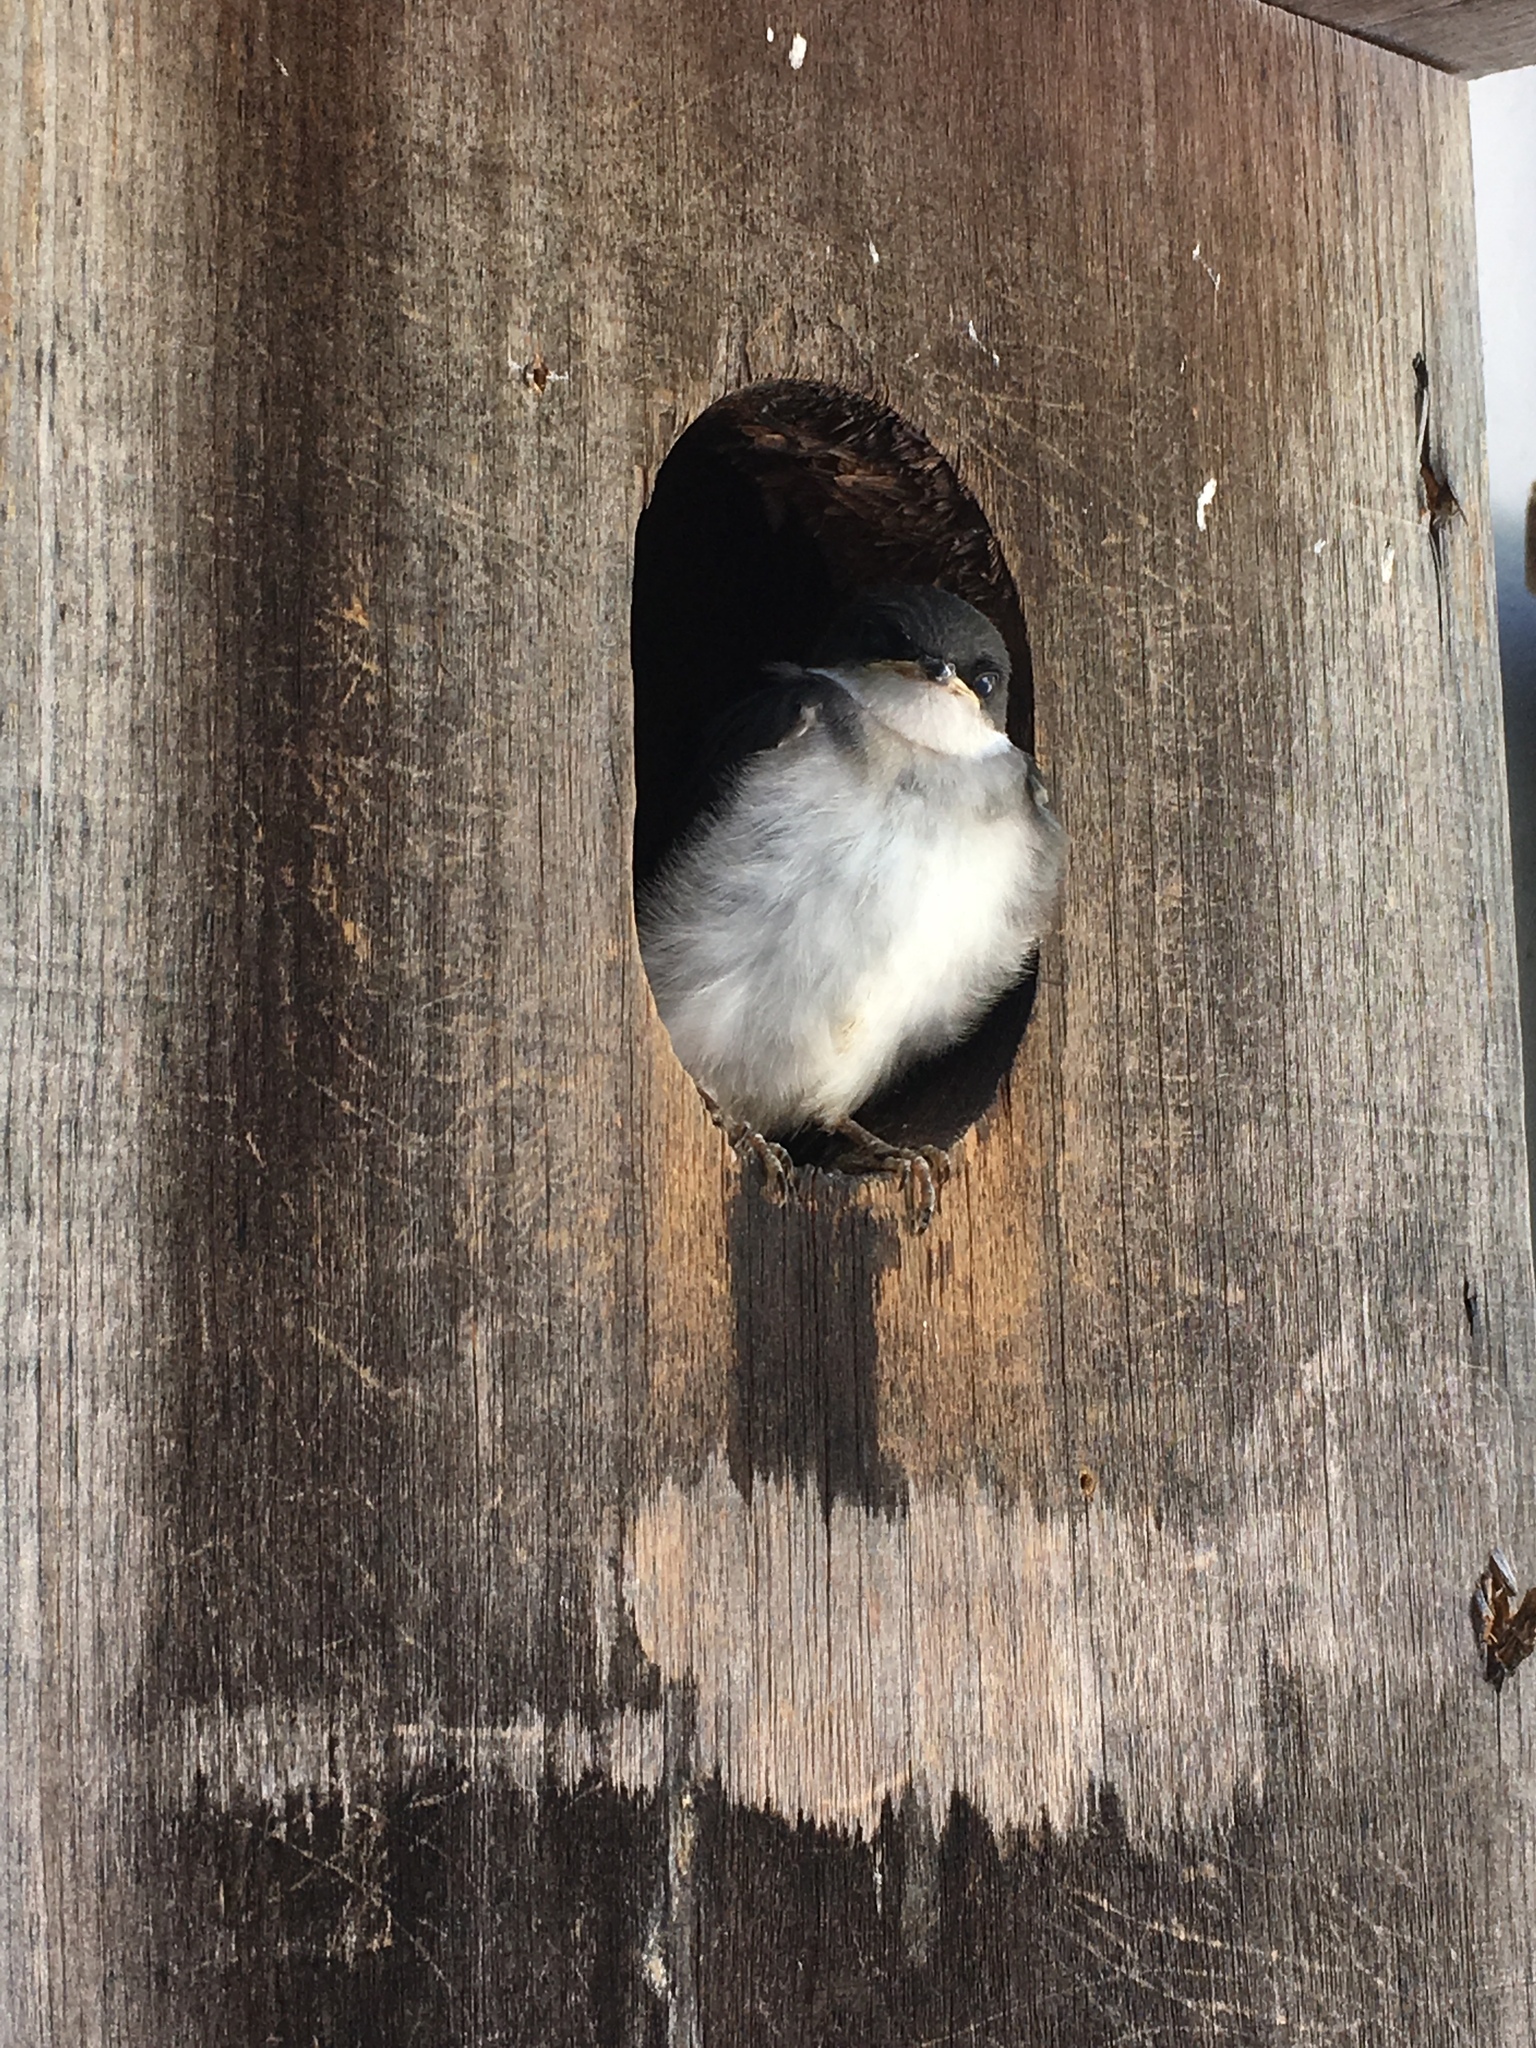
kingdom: Animalia
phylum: Chordata
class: Aves
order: Passeriformes
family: Hirundinidae
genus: Tachycineta
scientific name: Tachycineta bicolor
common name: Tree swallow
